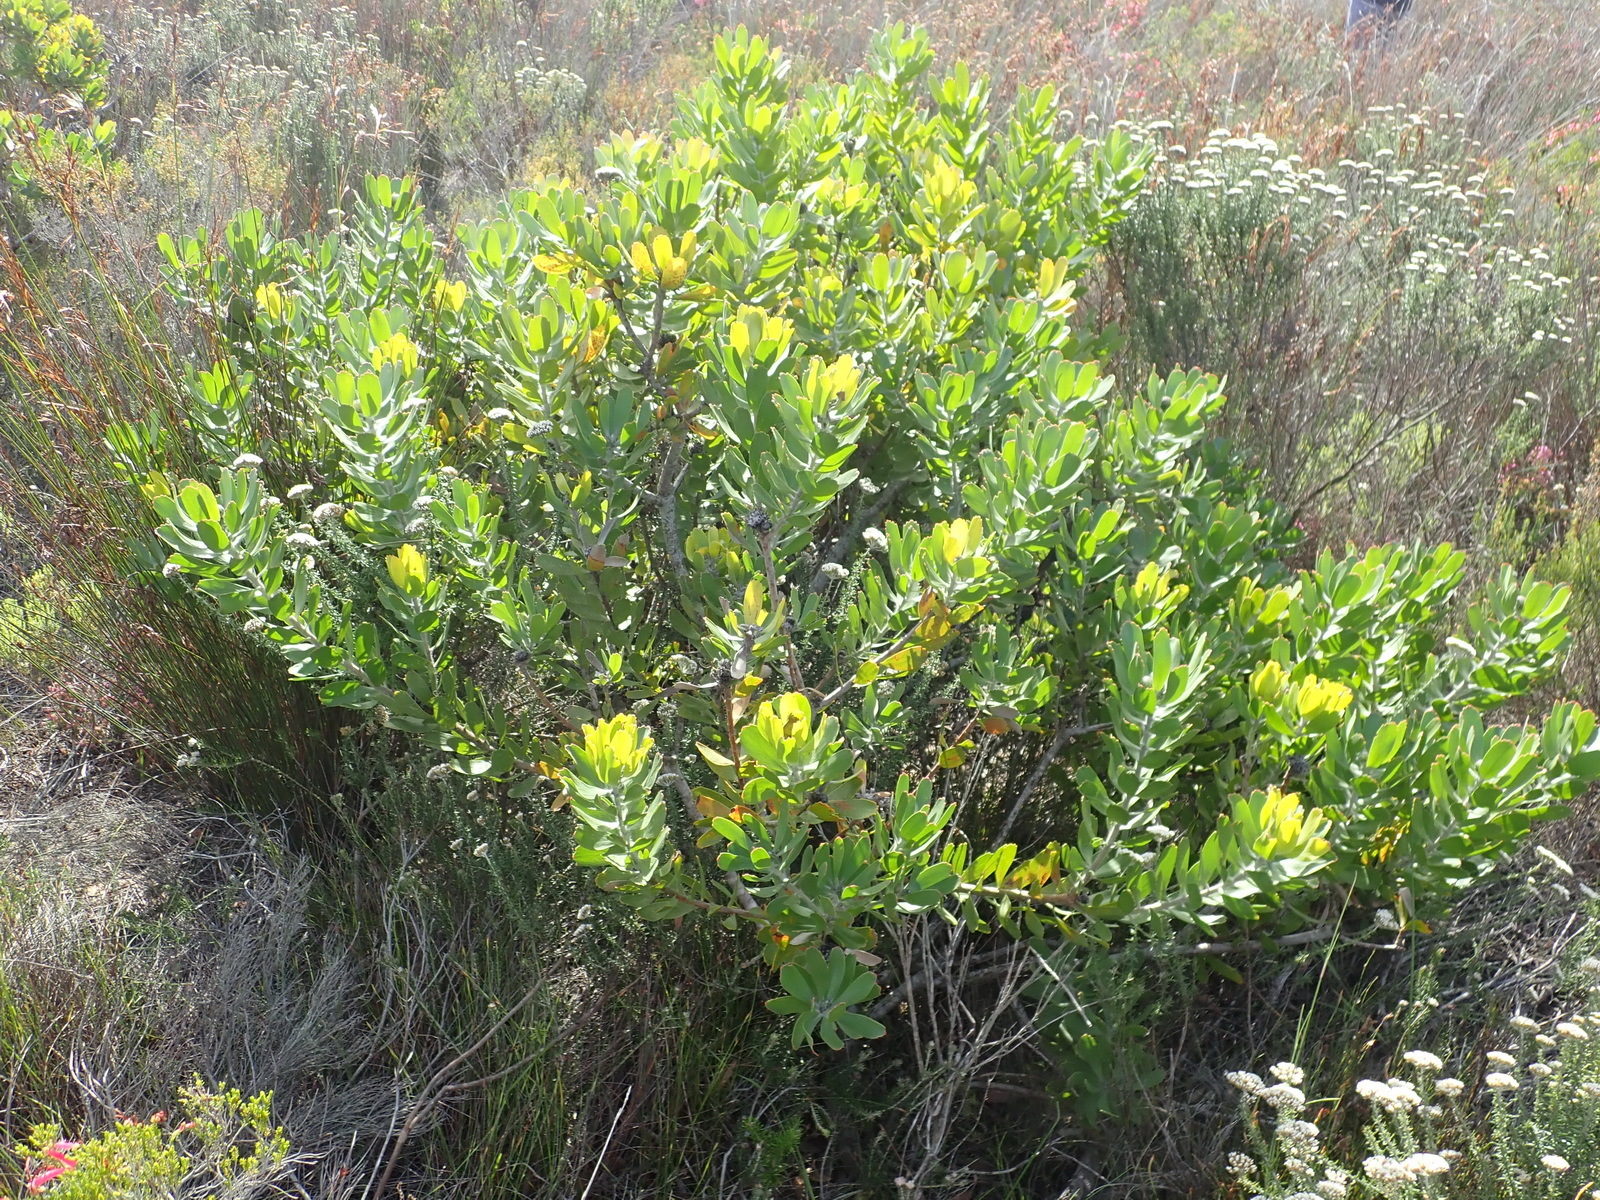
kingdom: Plantae
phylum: Tracheophyta
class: Magnoliopsida
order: Proteales
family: Proteaceae
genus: Leucospermum
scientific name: Leucospermum praecox
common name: Mossel bay pincushion
